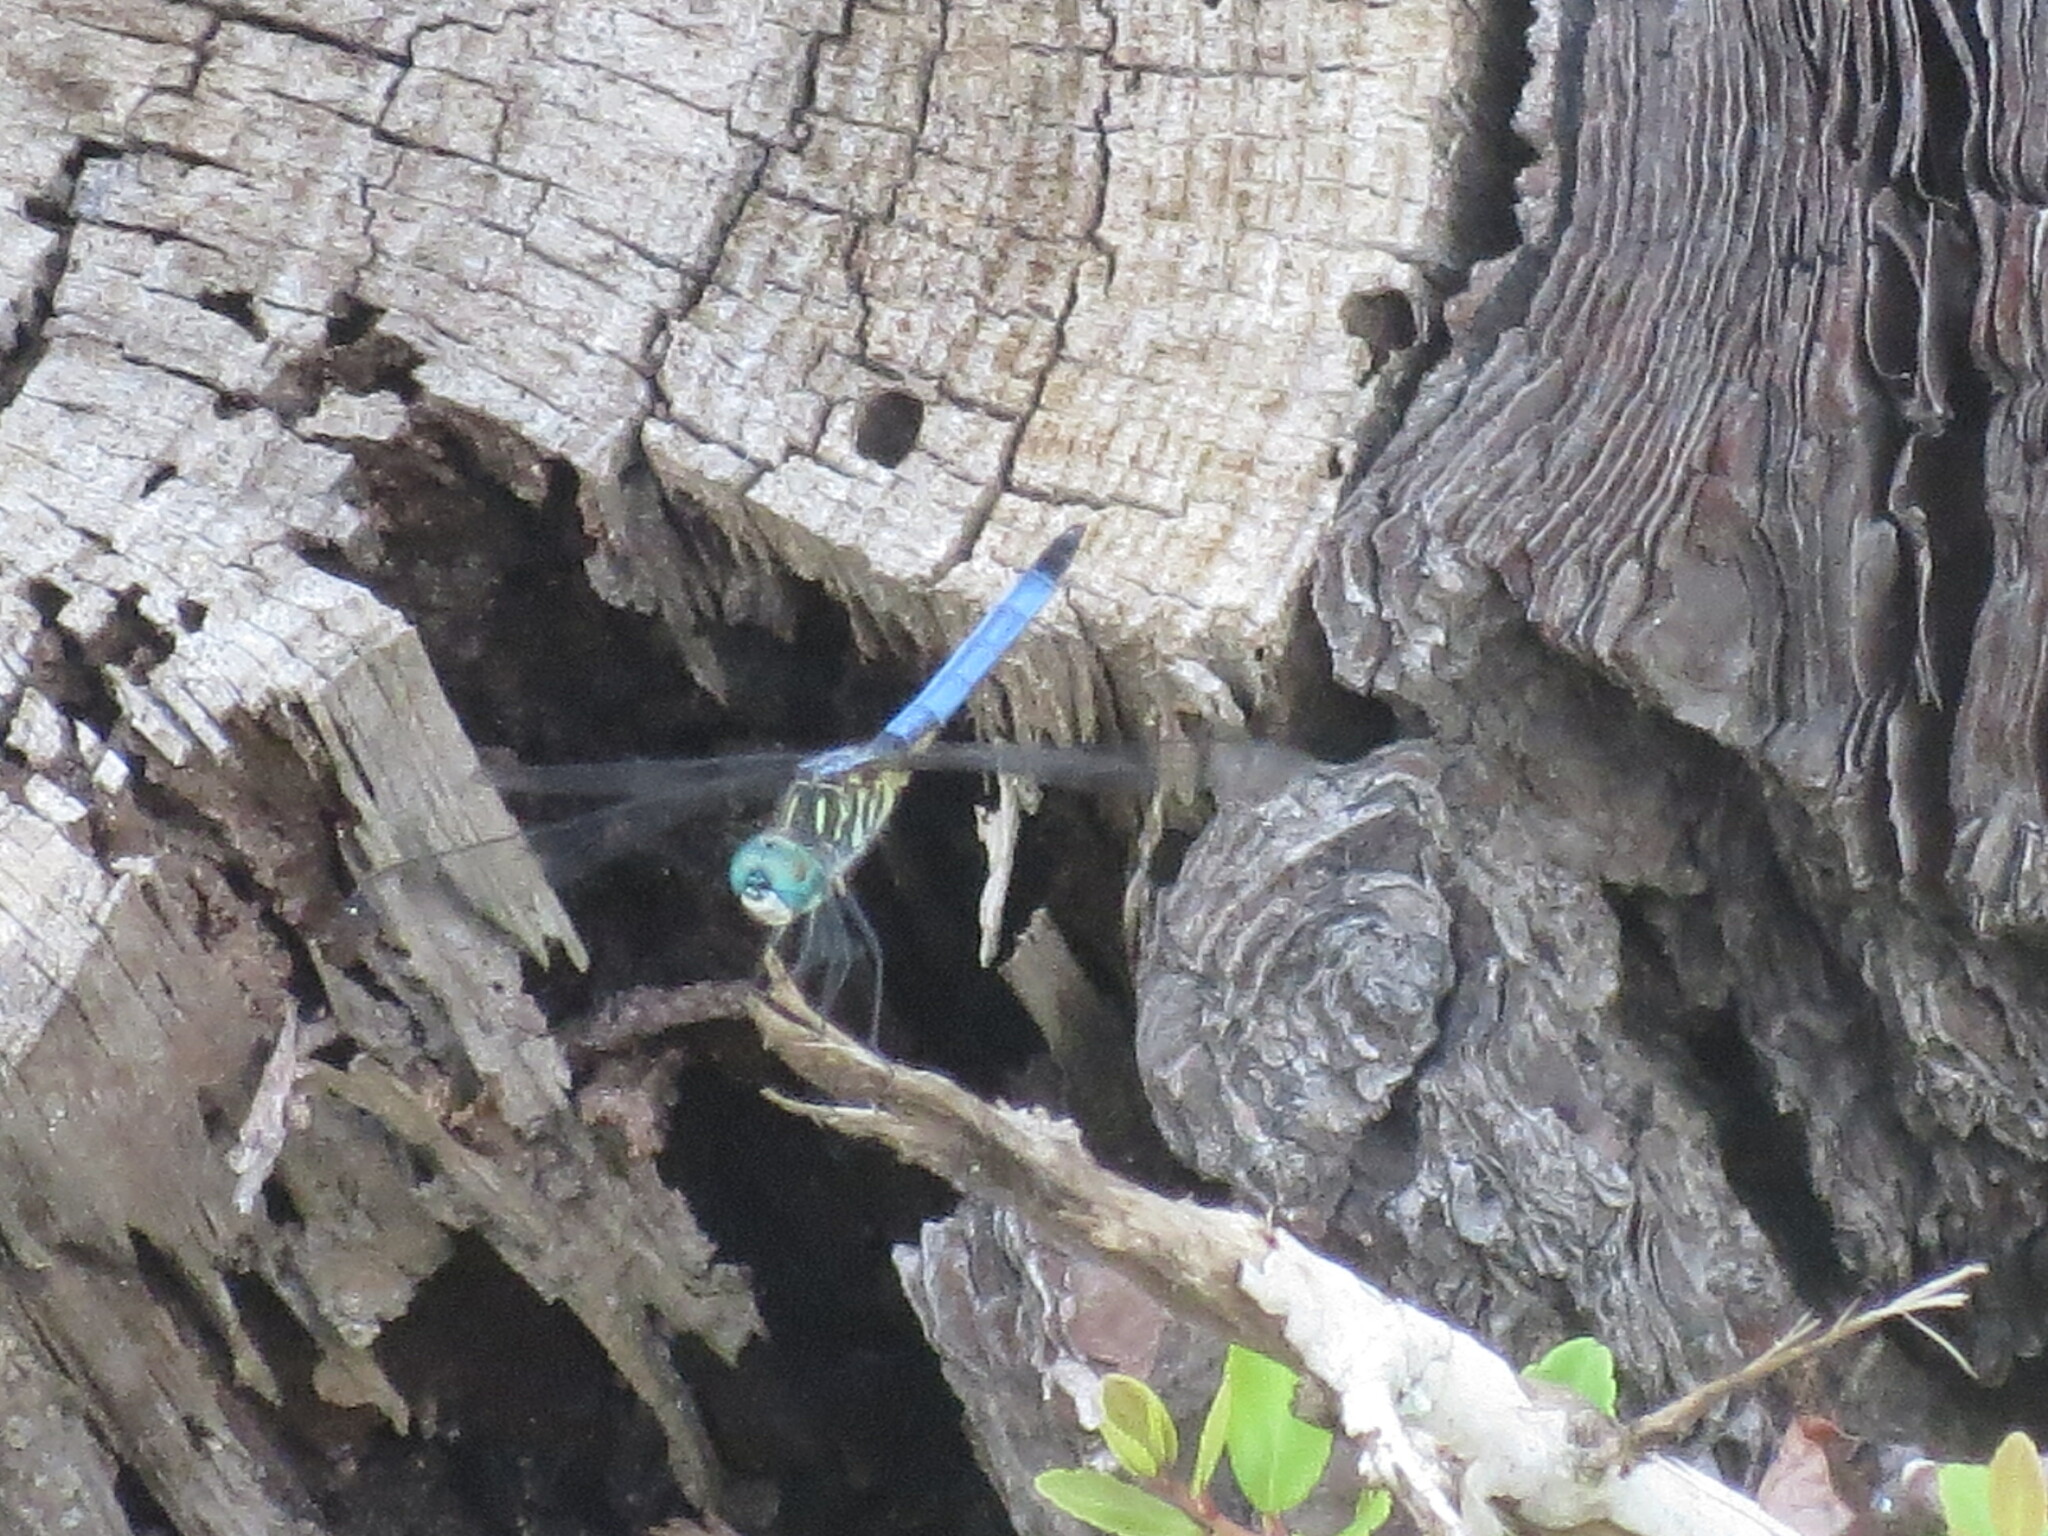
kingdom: Animalia
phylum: Arthropoda
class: Insecta
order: Odonata
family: Libellulidae
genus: Pachydiplax
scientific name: Pachydiplax longipennis
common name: Blue dasher
